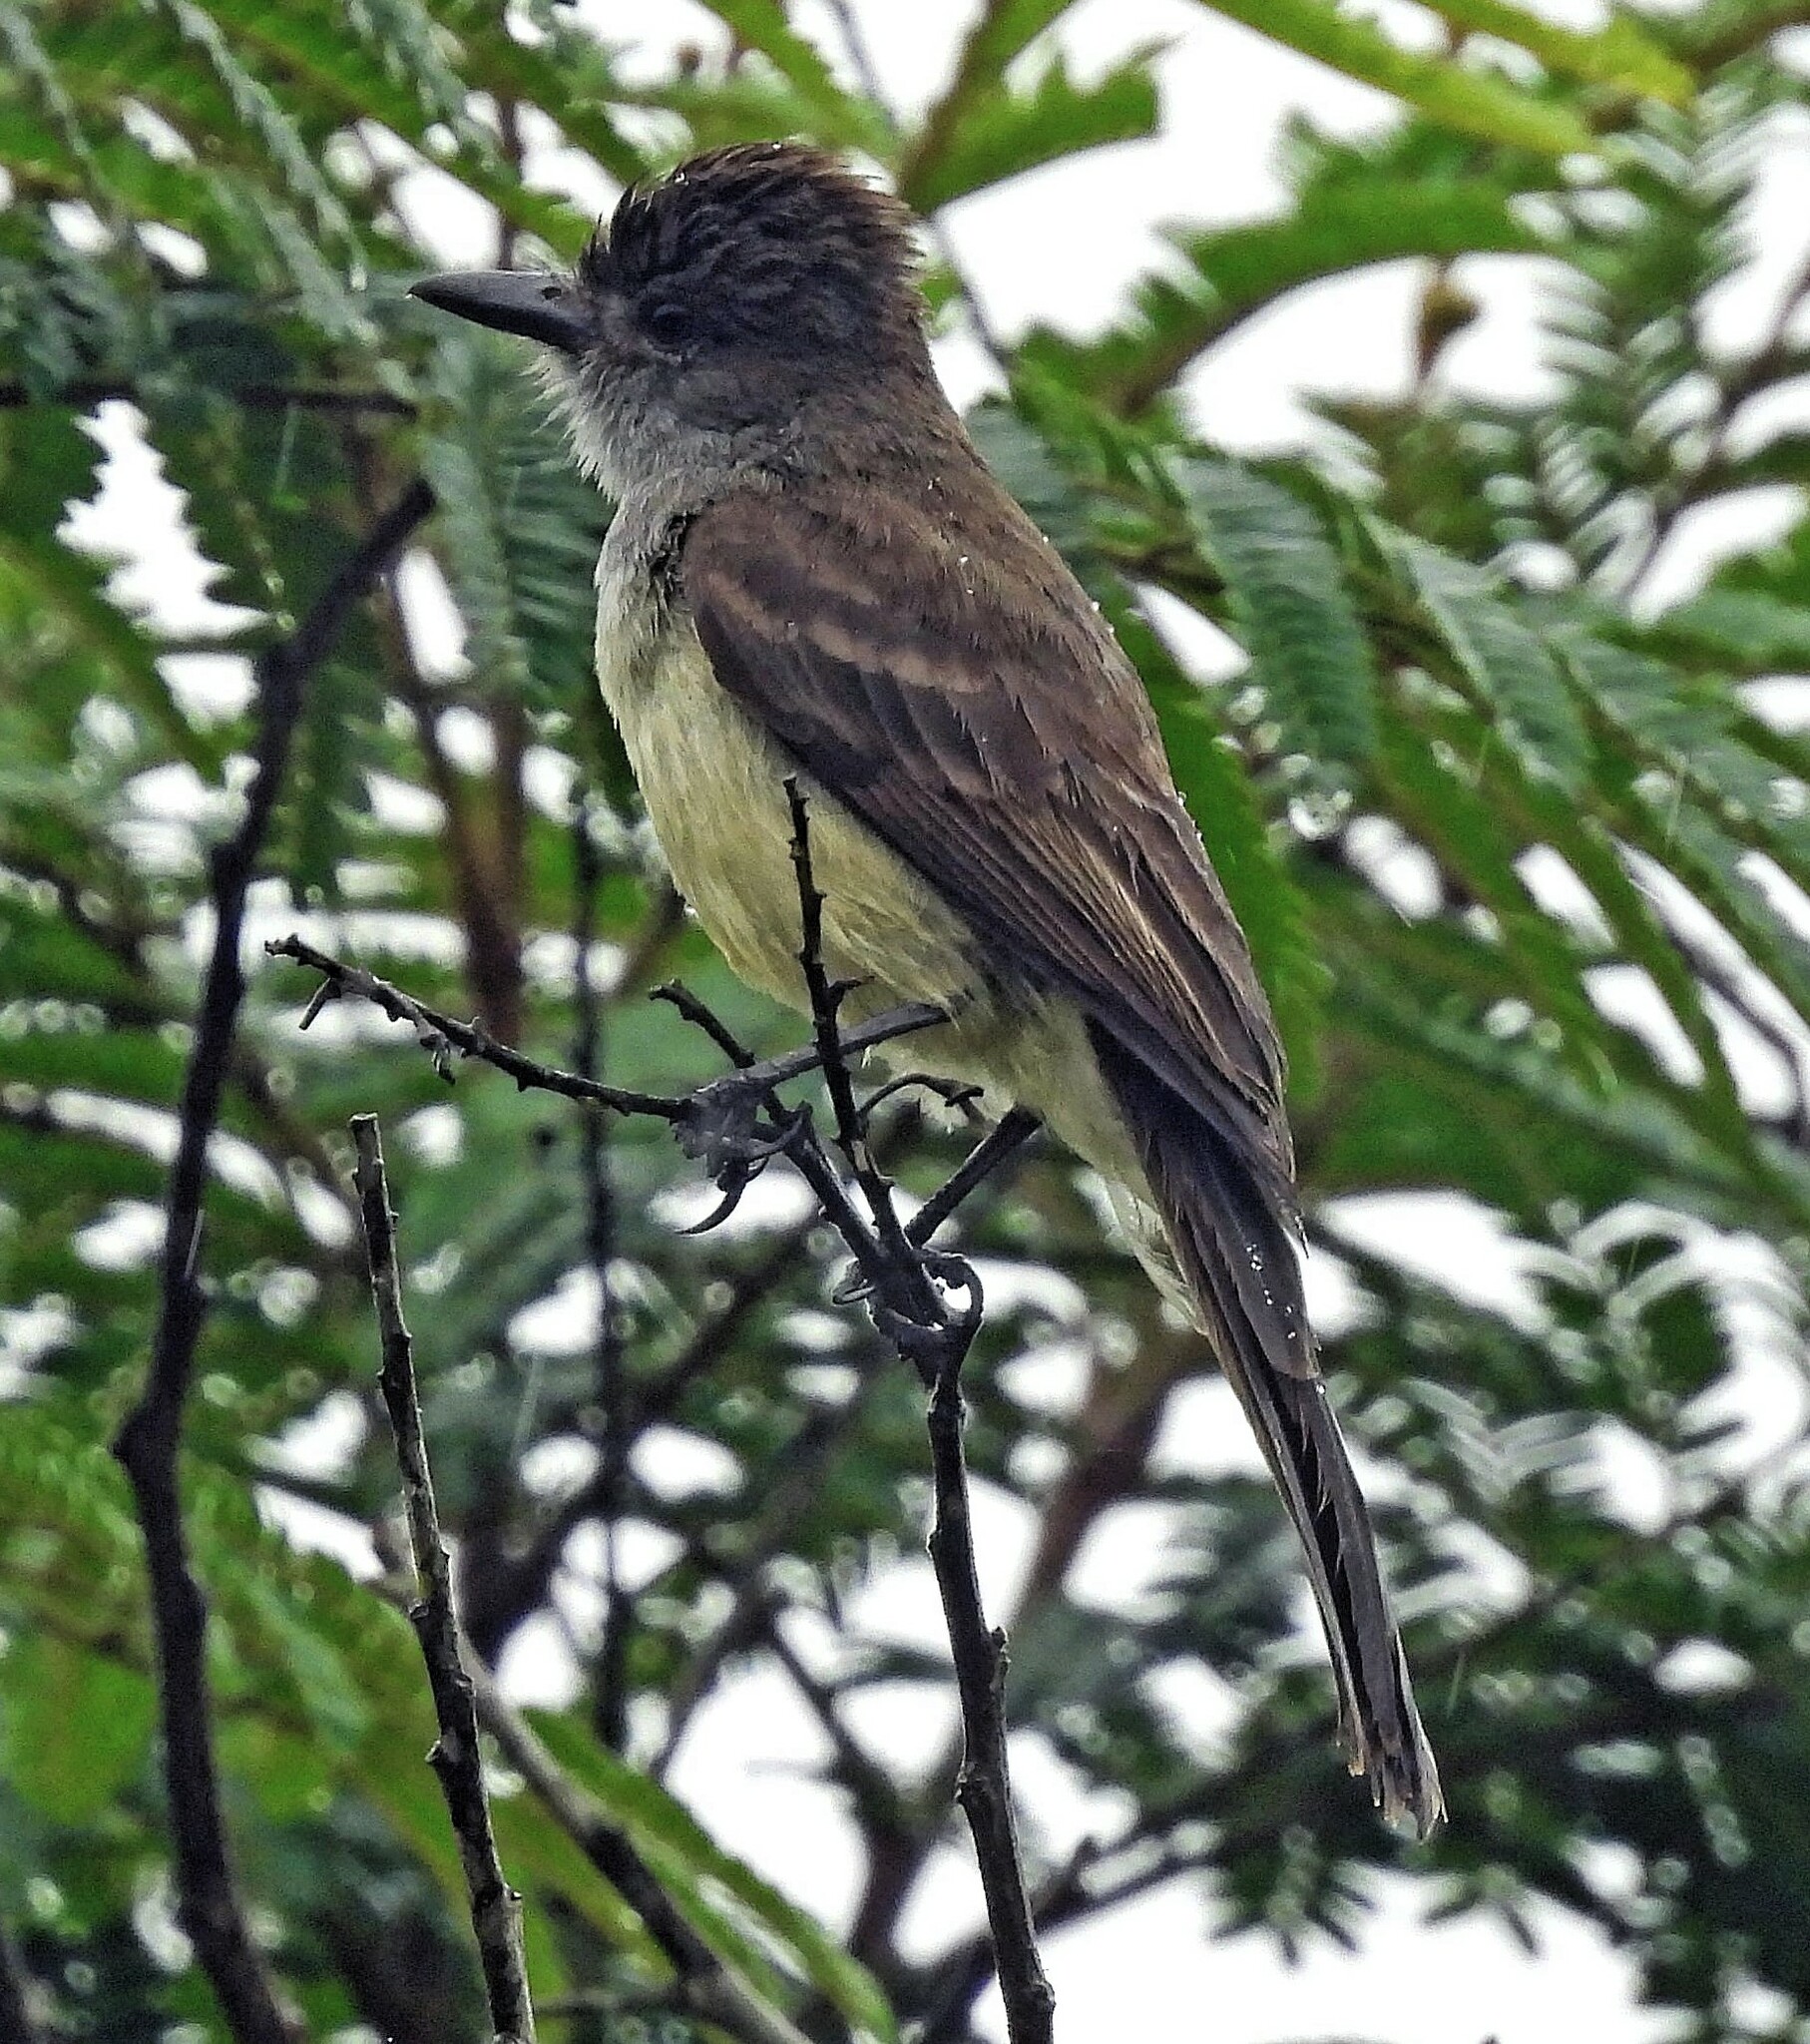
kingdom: Animalia
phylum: Chordata
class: Aves
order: Passeriformes
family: Tyrannidae
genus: Myiarchus
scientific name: Myiarchus ferox
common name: Short-crested flycatcher
